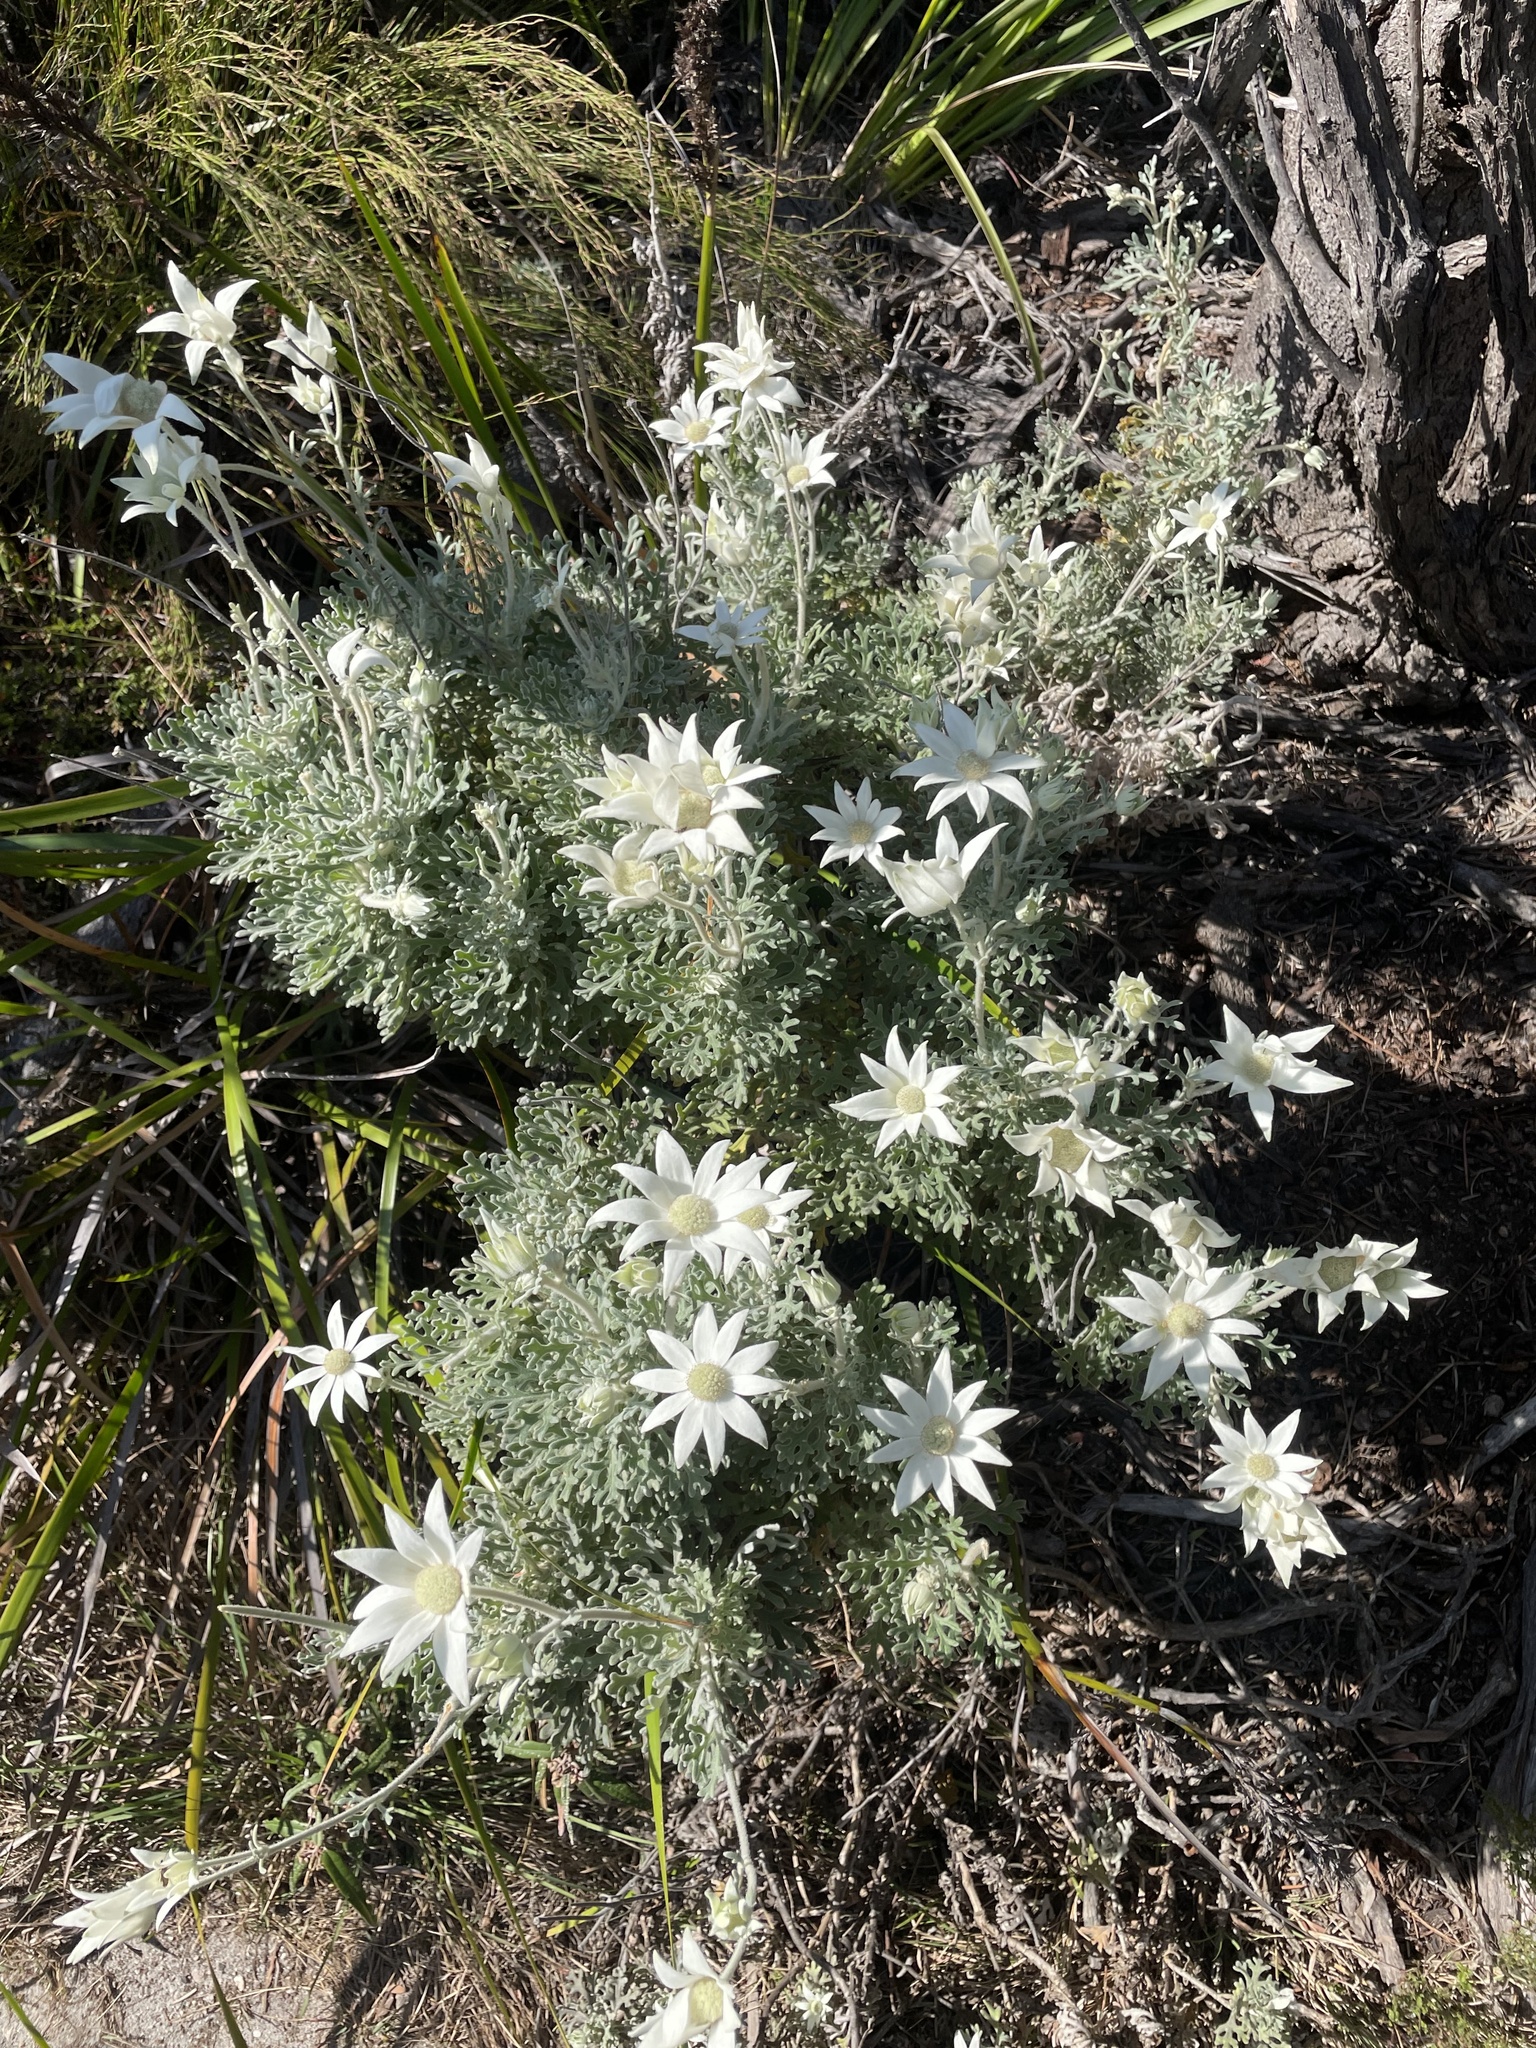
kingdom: Plantae
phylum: Tracheophyta
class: Magnoliopsida
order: Apiales
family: Apiaceae
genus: Actinotus
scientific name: Actinotus helianthi
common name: Flannel-flower
